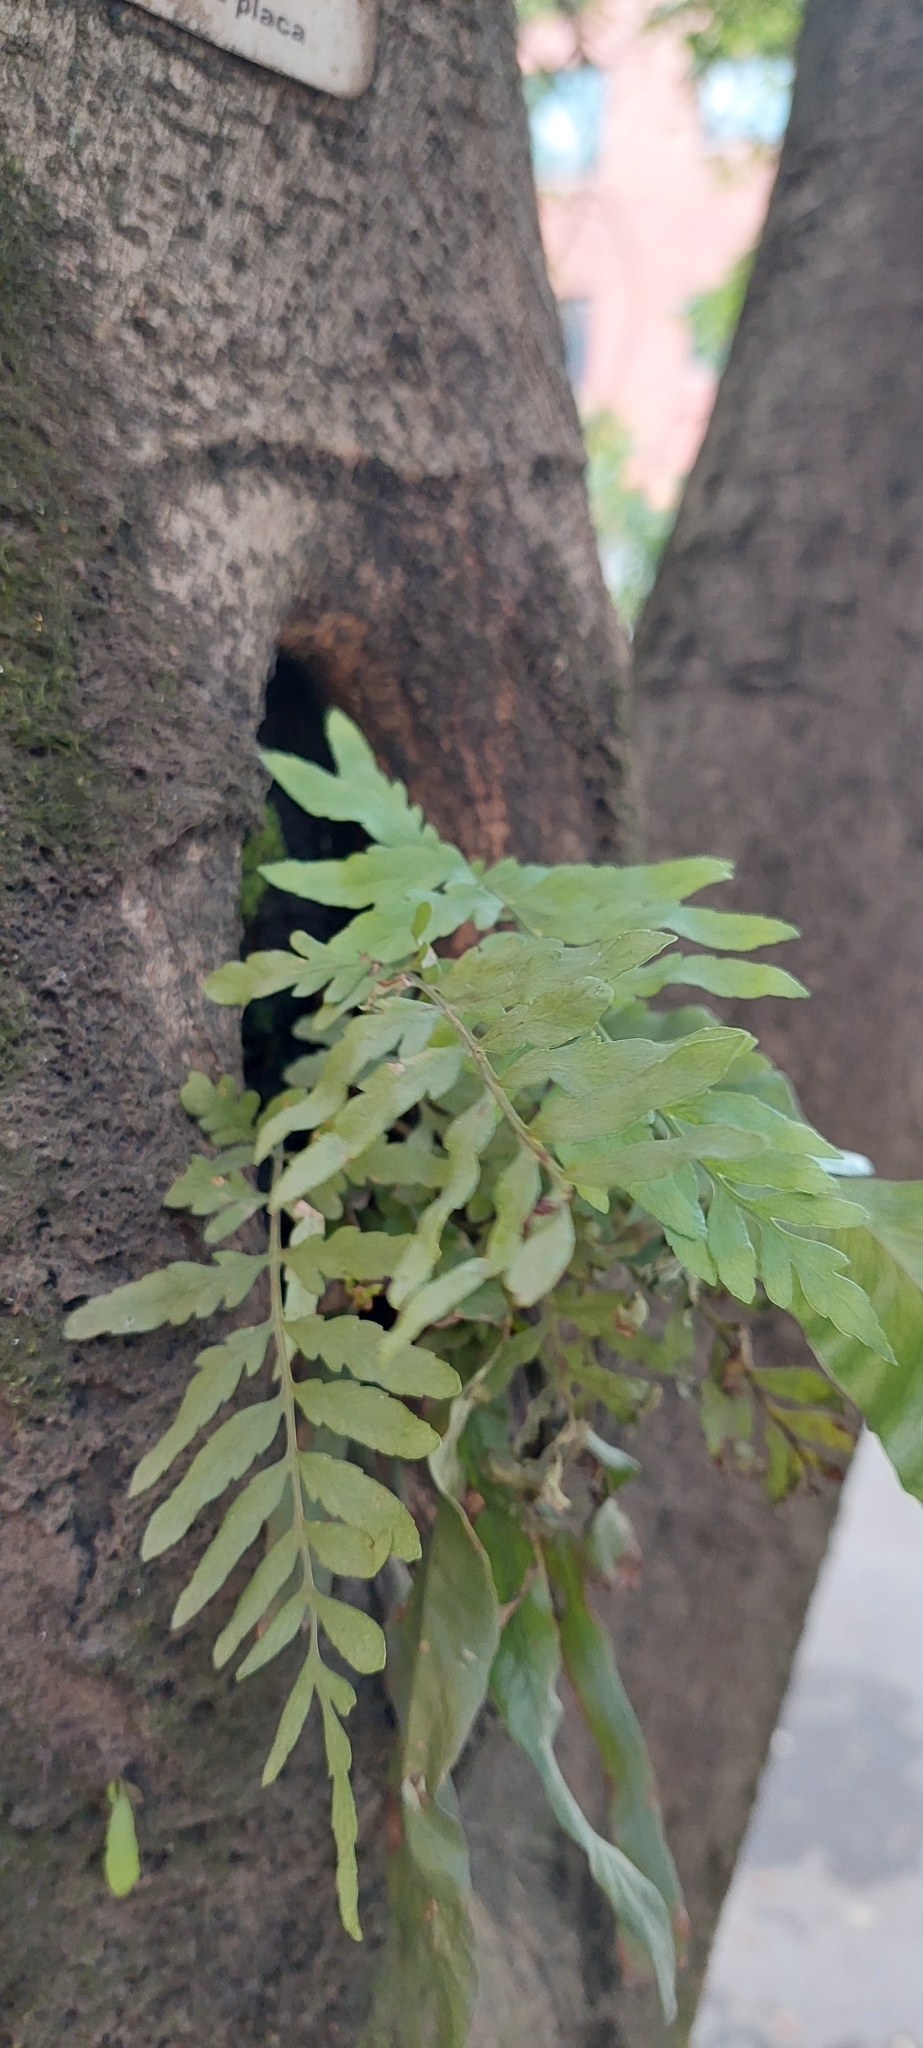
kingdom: Plantae
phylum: Tracheophyta
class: Polypodiopsida
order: Polypodiales
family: Polypodiaceae
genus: Pleopeltis
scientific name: Pleopeltis murora
